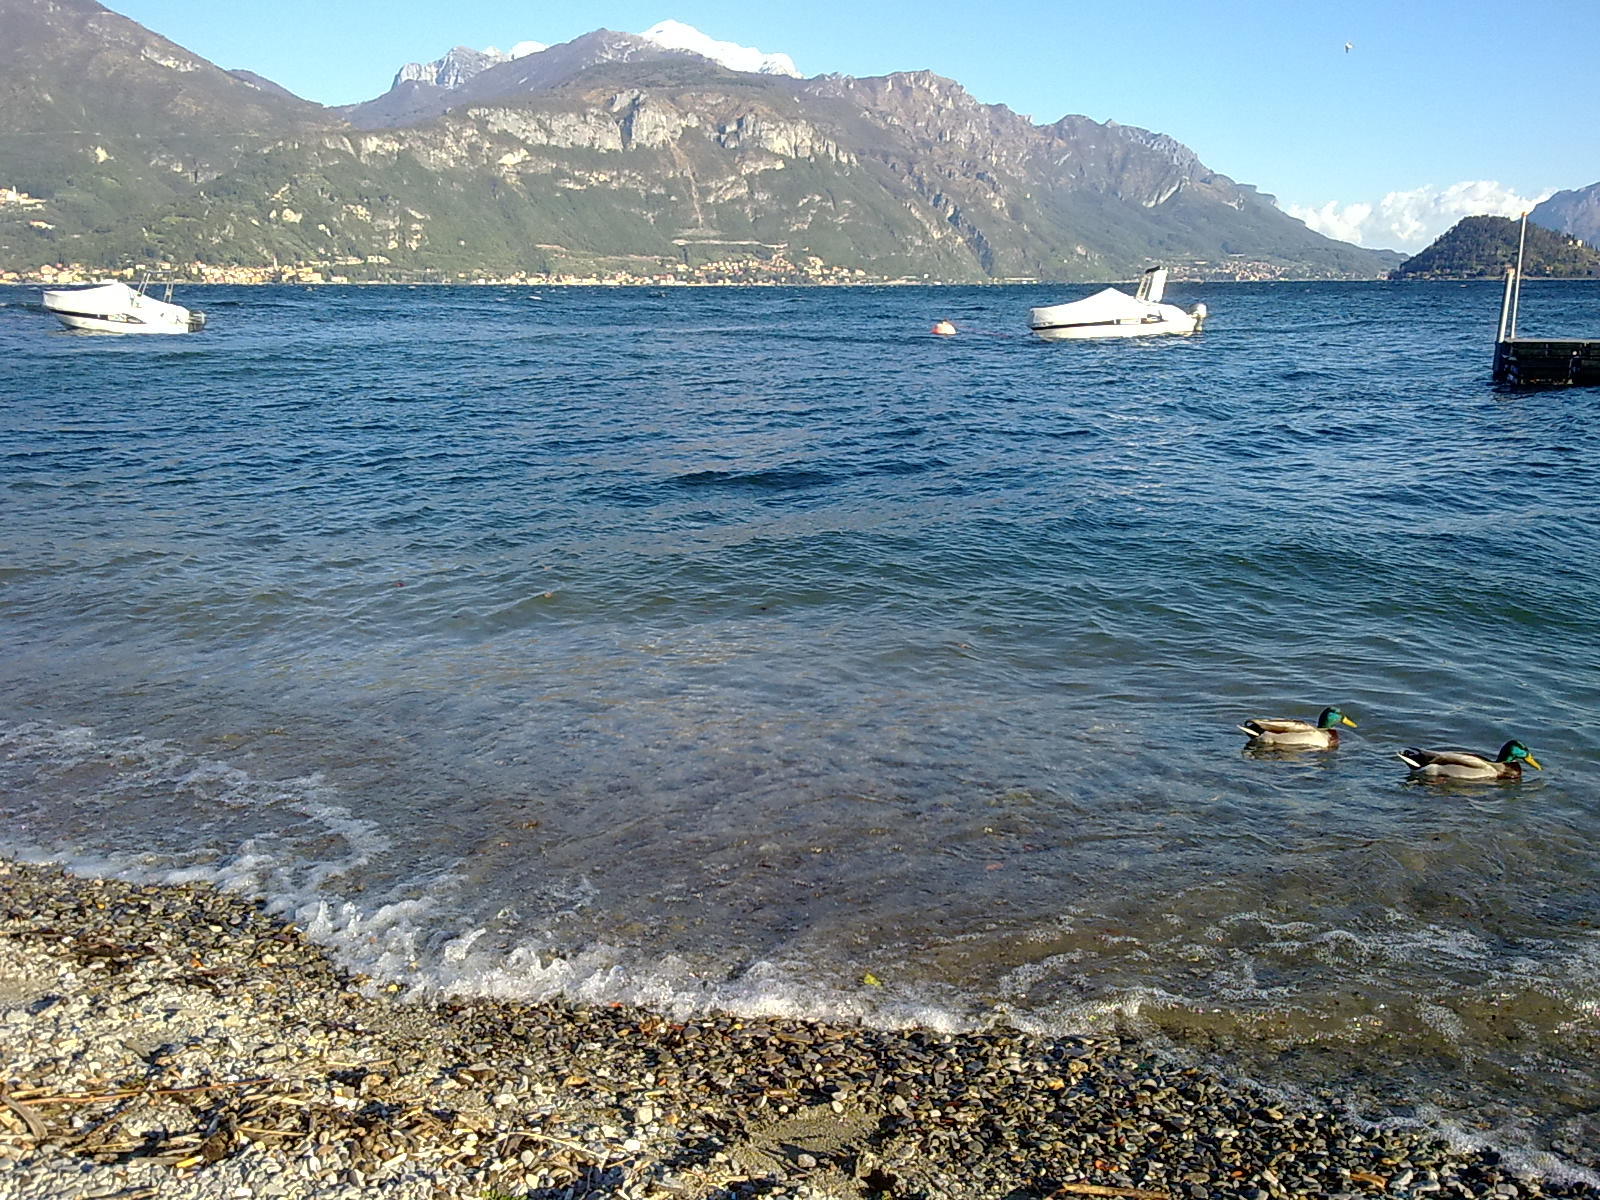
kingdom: Animalia
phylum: Chordata
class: Aves
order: Anseriformes
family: Anatidae
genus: Anas
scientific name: Anas platyrhynchos
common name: Mallard
